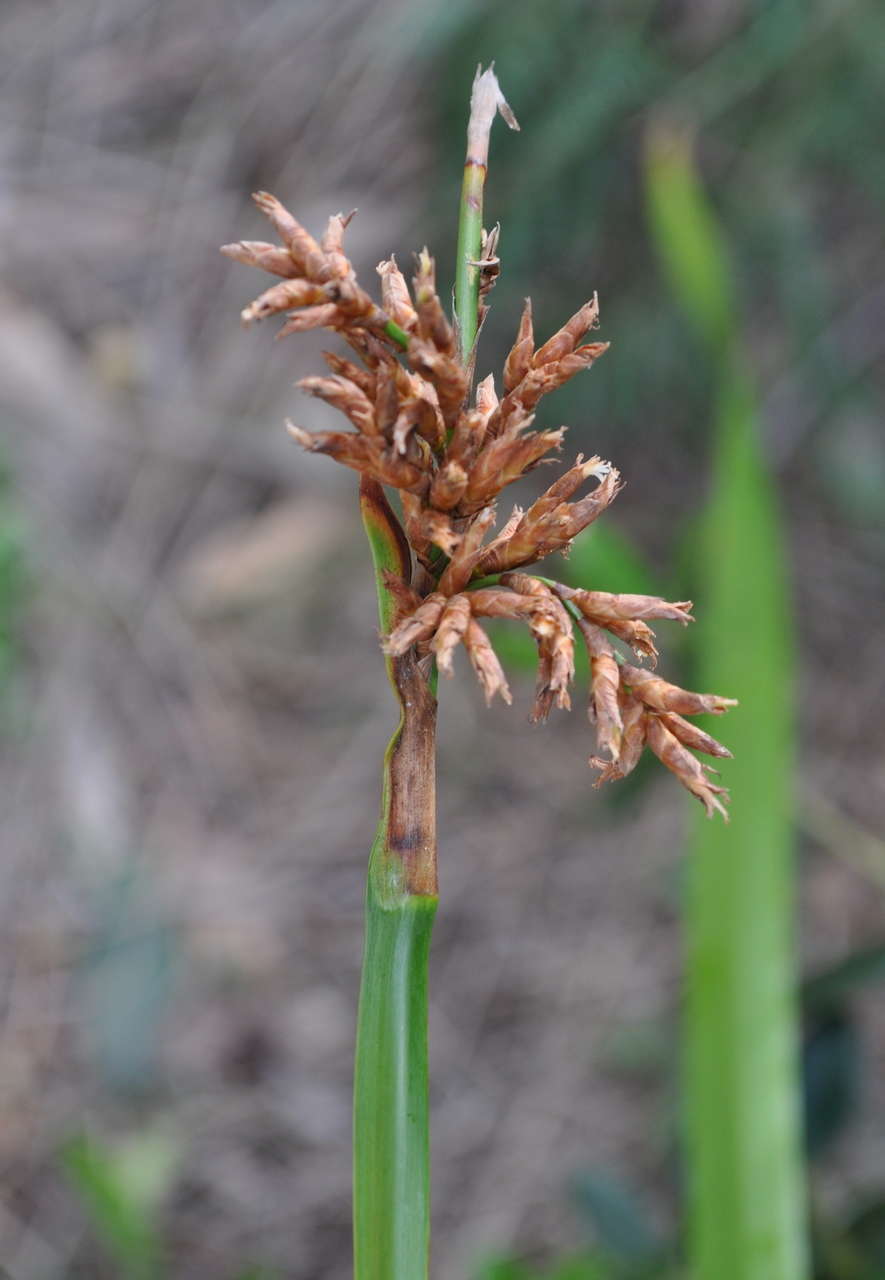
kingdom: Plantae
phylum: Tracheophyta
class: Liliopsida
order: Poales
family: Cyperaceae
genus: Lepidosperma
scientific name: Lepidosperma gladiatum
